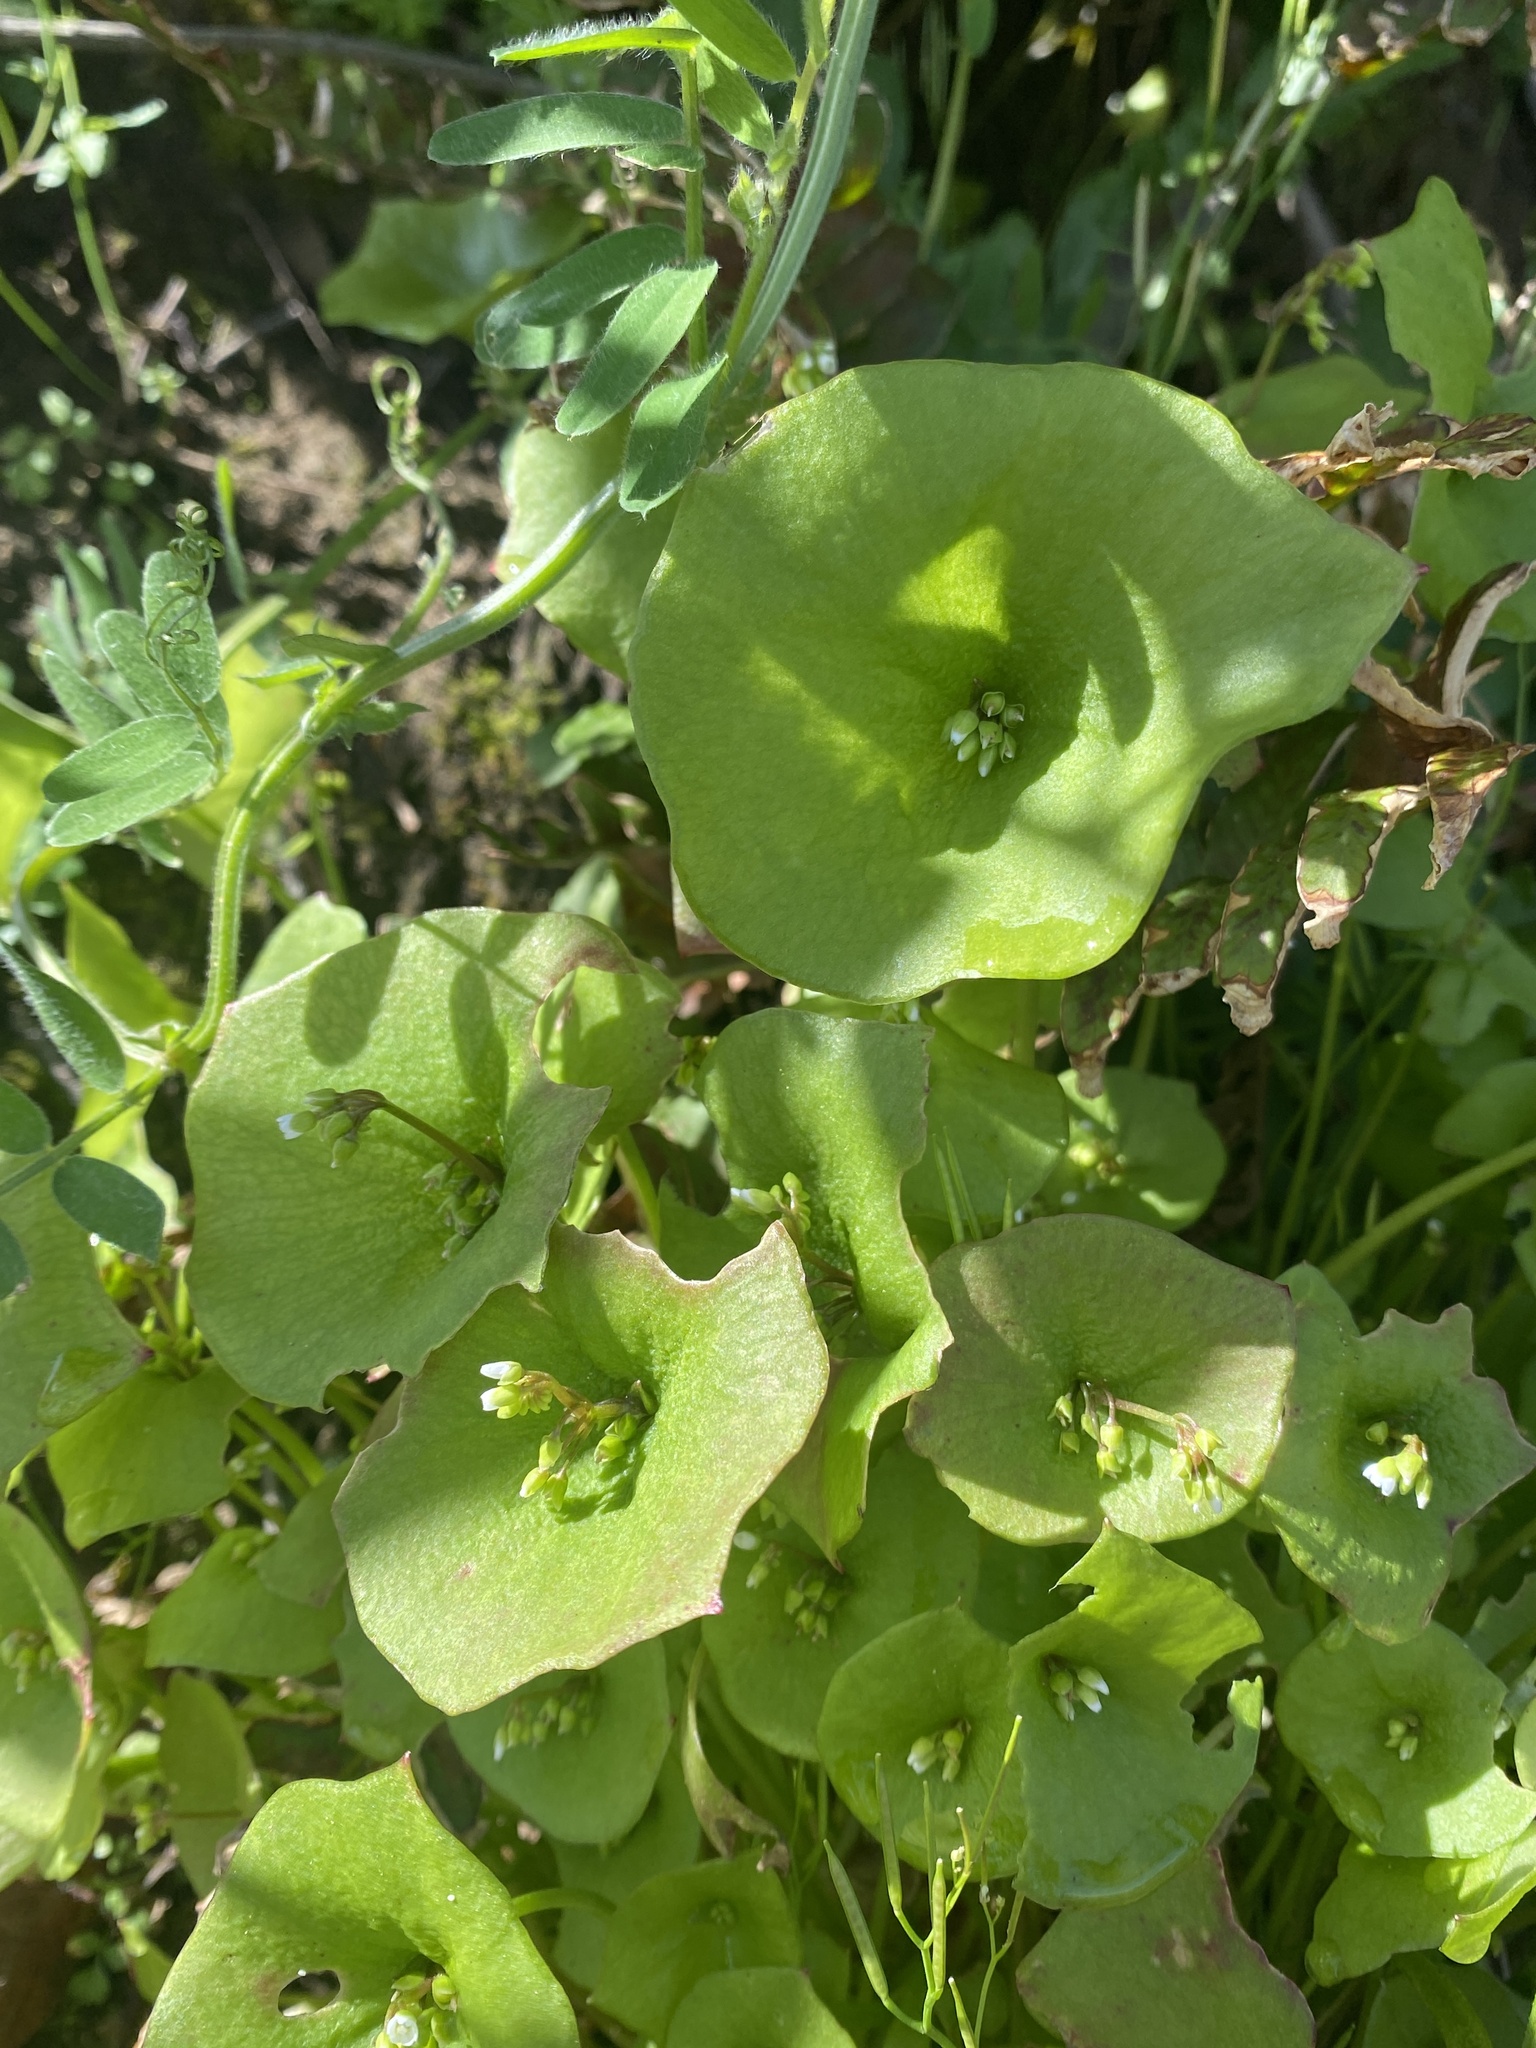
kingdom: Plantae
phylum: Tracheophyta
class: Magnoliopsida
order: Caryophyllales
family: Montiaceae
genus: Claytonia
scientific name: Claytonia perfoliata
